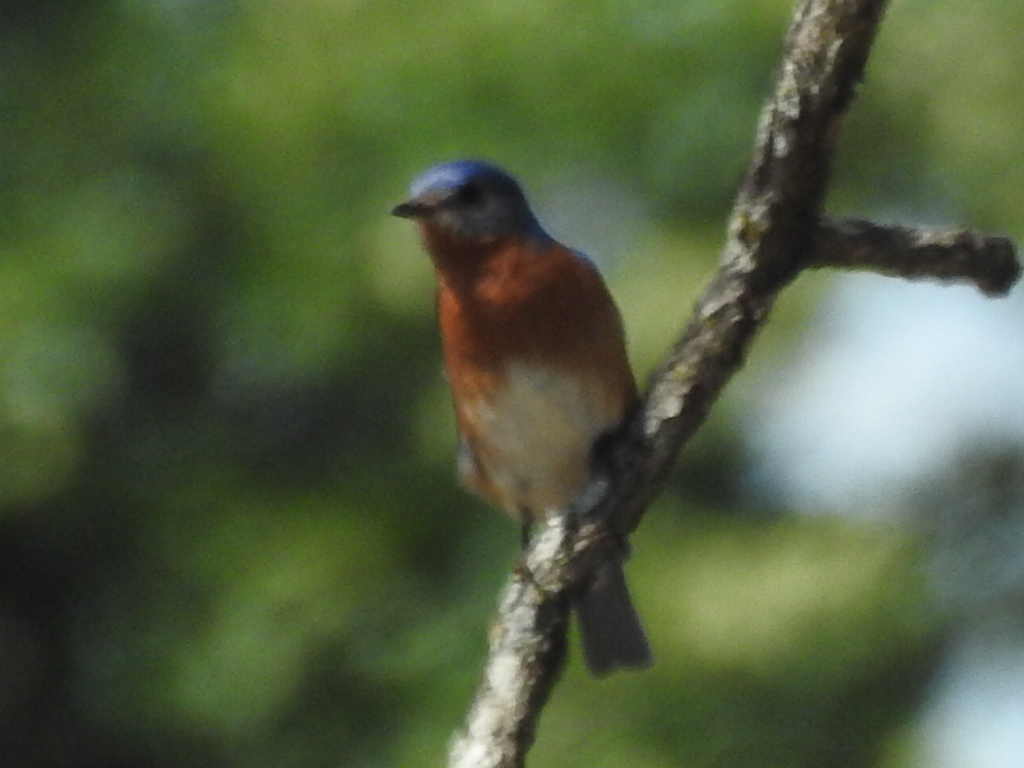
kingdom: Animalia
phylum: Chordata
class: Aves
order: Passeriformes
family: Turdidae
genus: Sialia
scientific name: Sialia sialis
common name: Eastern bluebird
